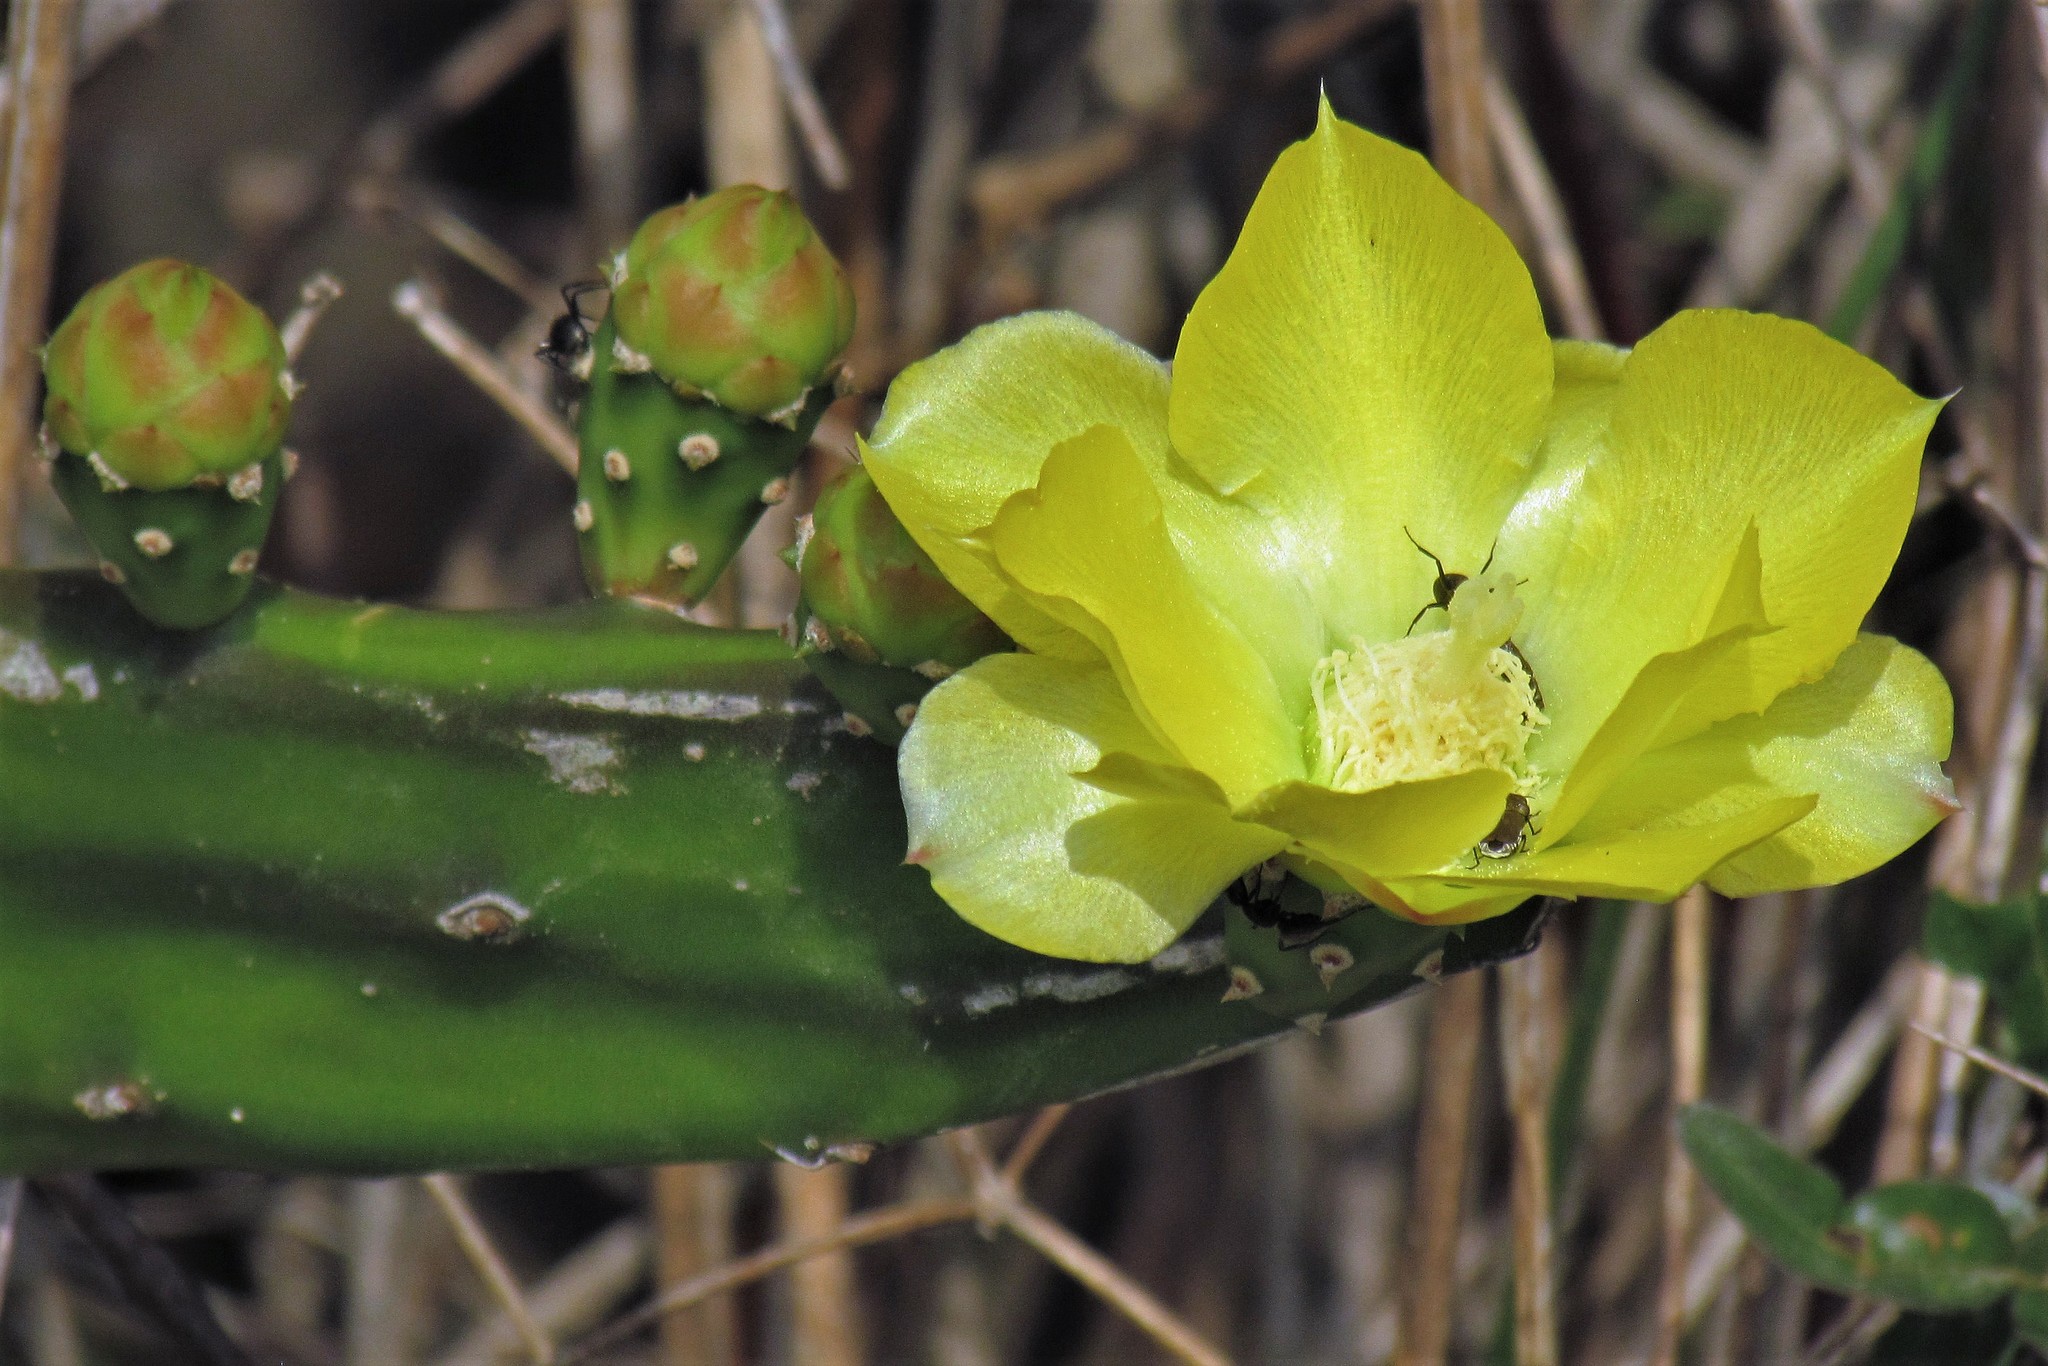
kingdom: Plantae
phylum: Tracheophyta
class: Magnoliopsida
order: Caryophyllales
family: Cactaceae
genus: Opuntia
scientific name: Opuntia anacantha
